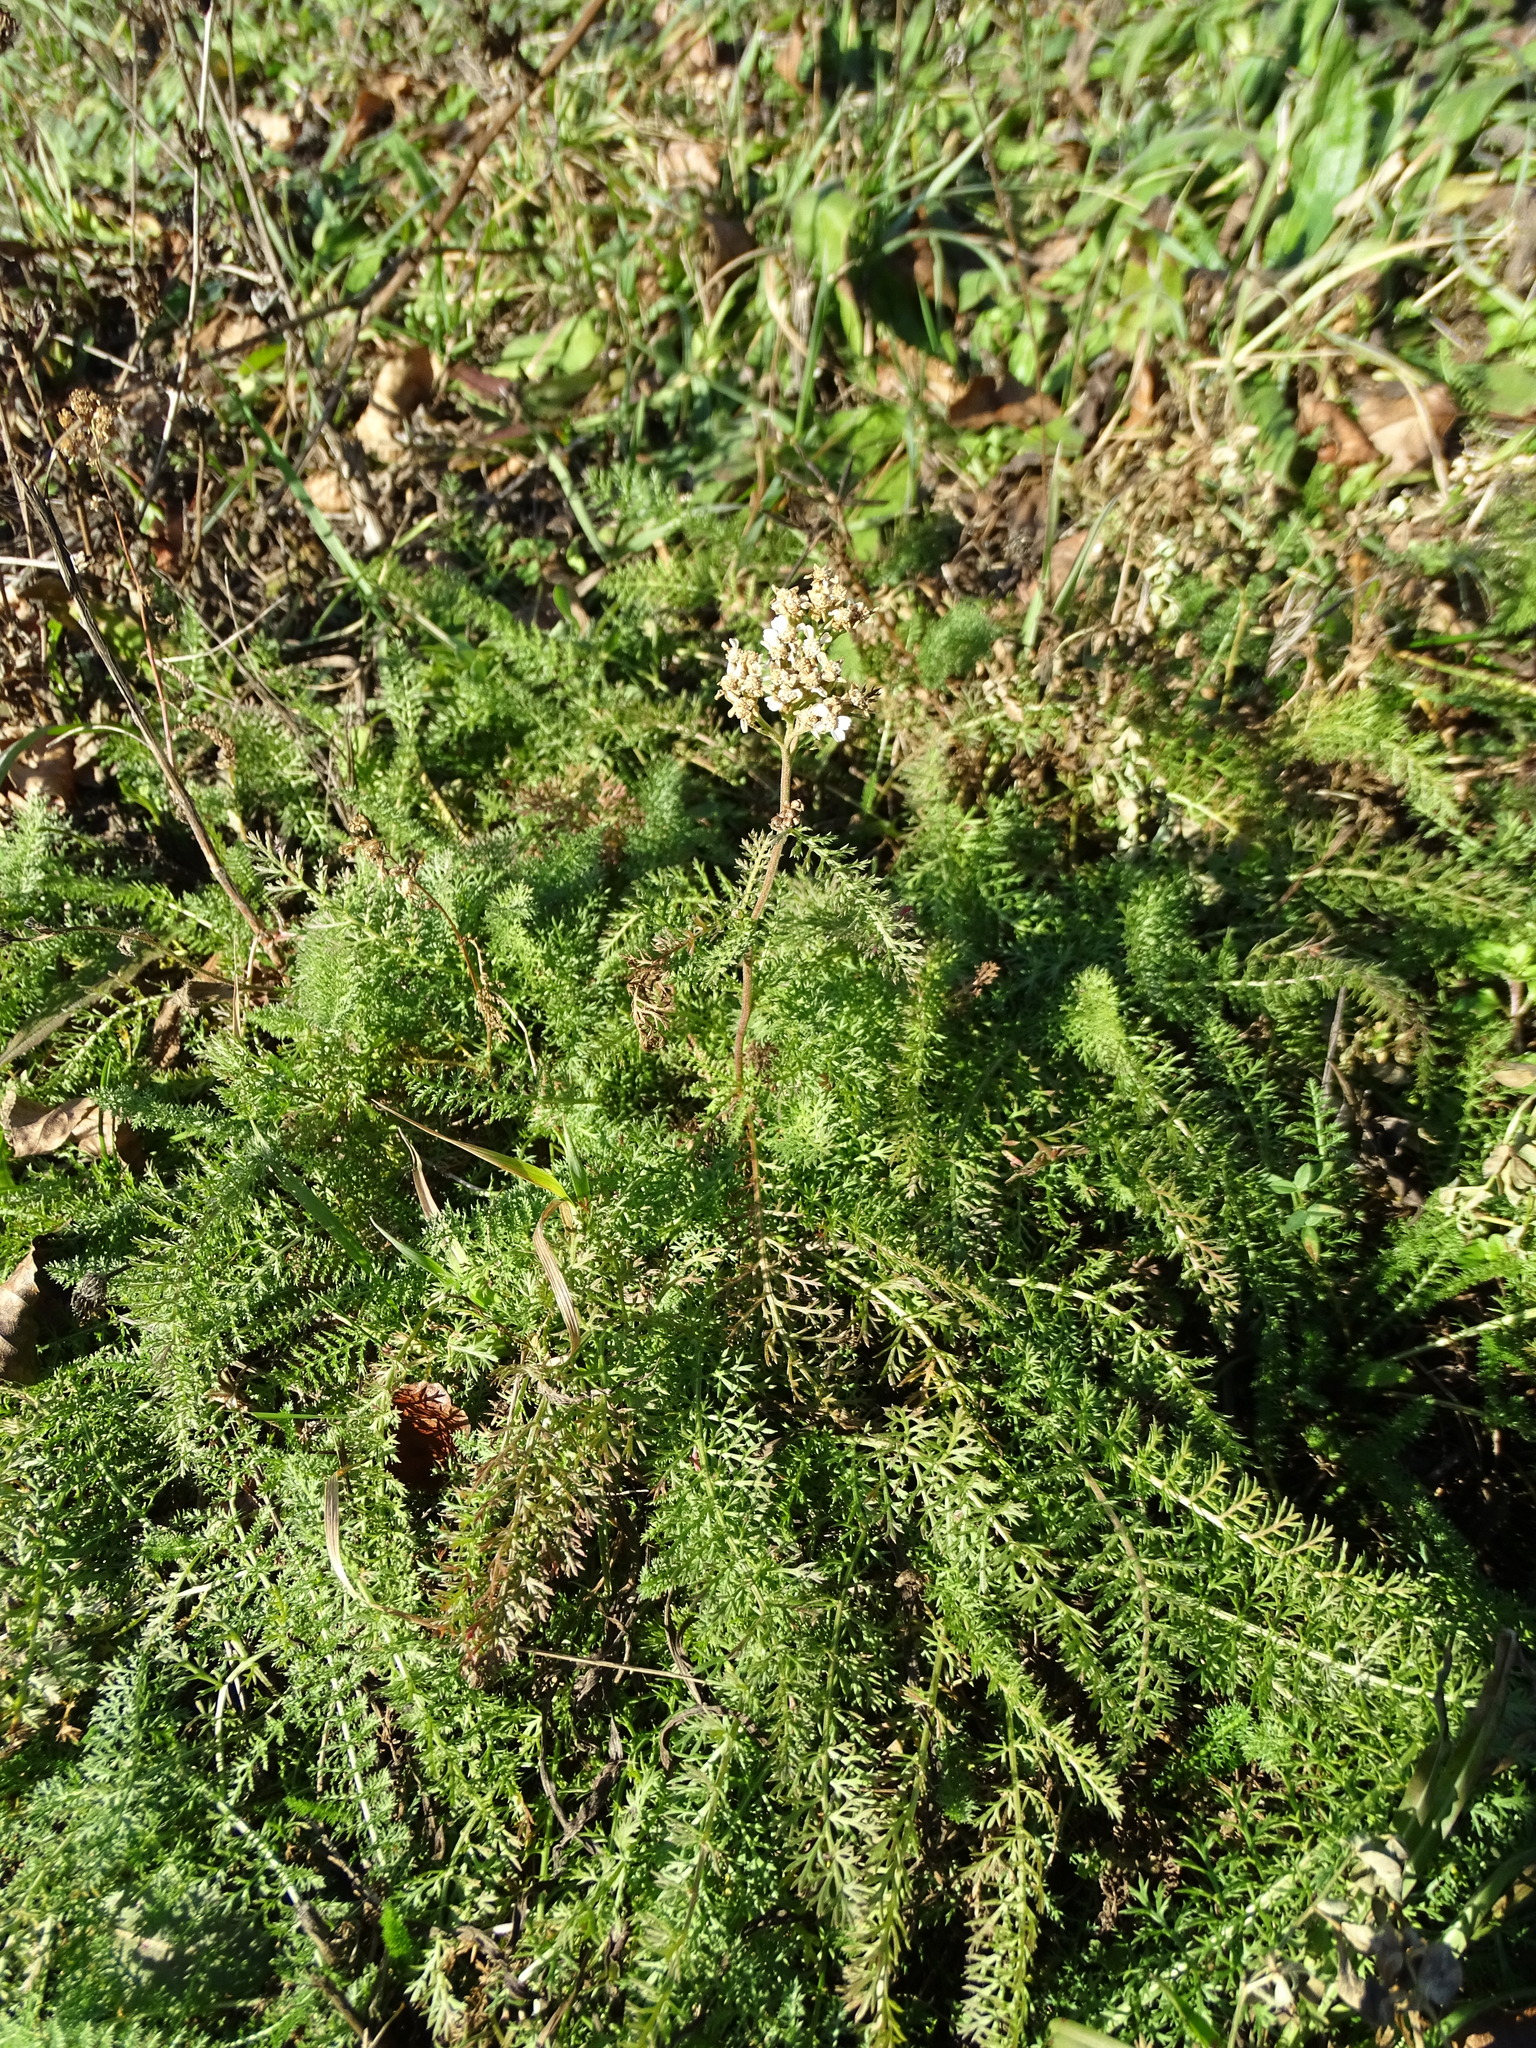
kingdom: Plantae
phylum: Tracheophyta
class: Magnoliopsida
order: Asterales
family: Asteraceae
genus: Achillea
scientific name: Achillea millefolium
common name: Yarrow
